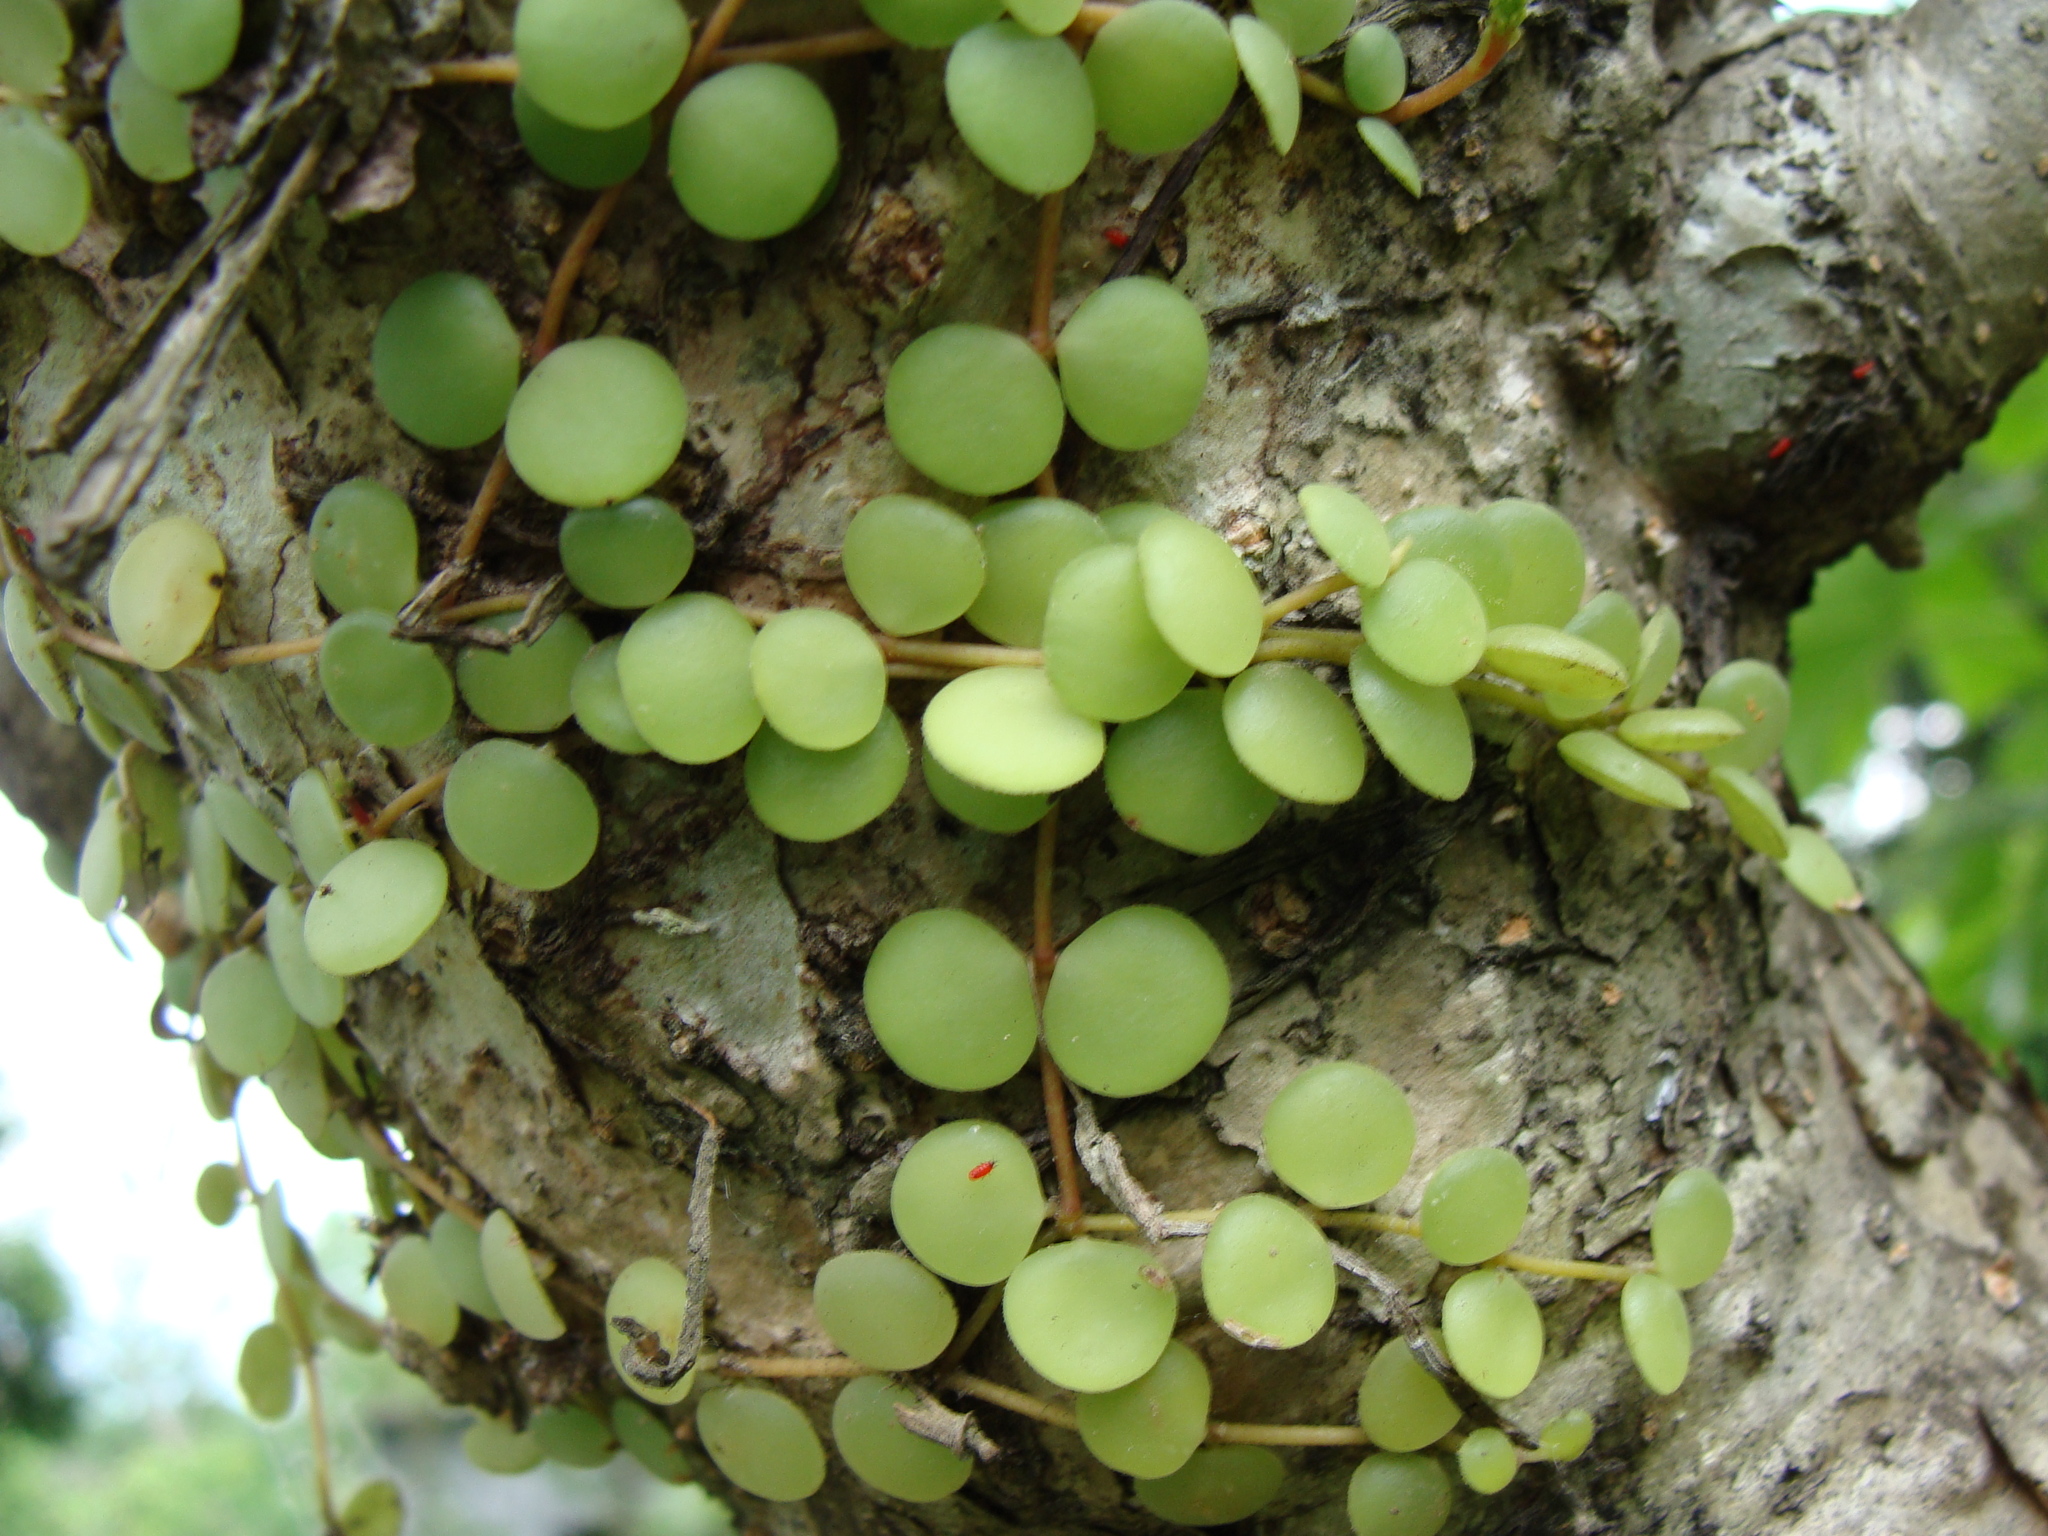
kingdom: Plantae
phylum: Tracheophyta
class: Magnoliopsida
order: Piperales
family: Piperaceae
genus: Peperomia
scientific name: Peperomia cyclophylla
